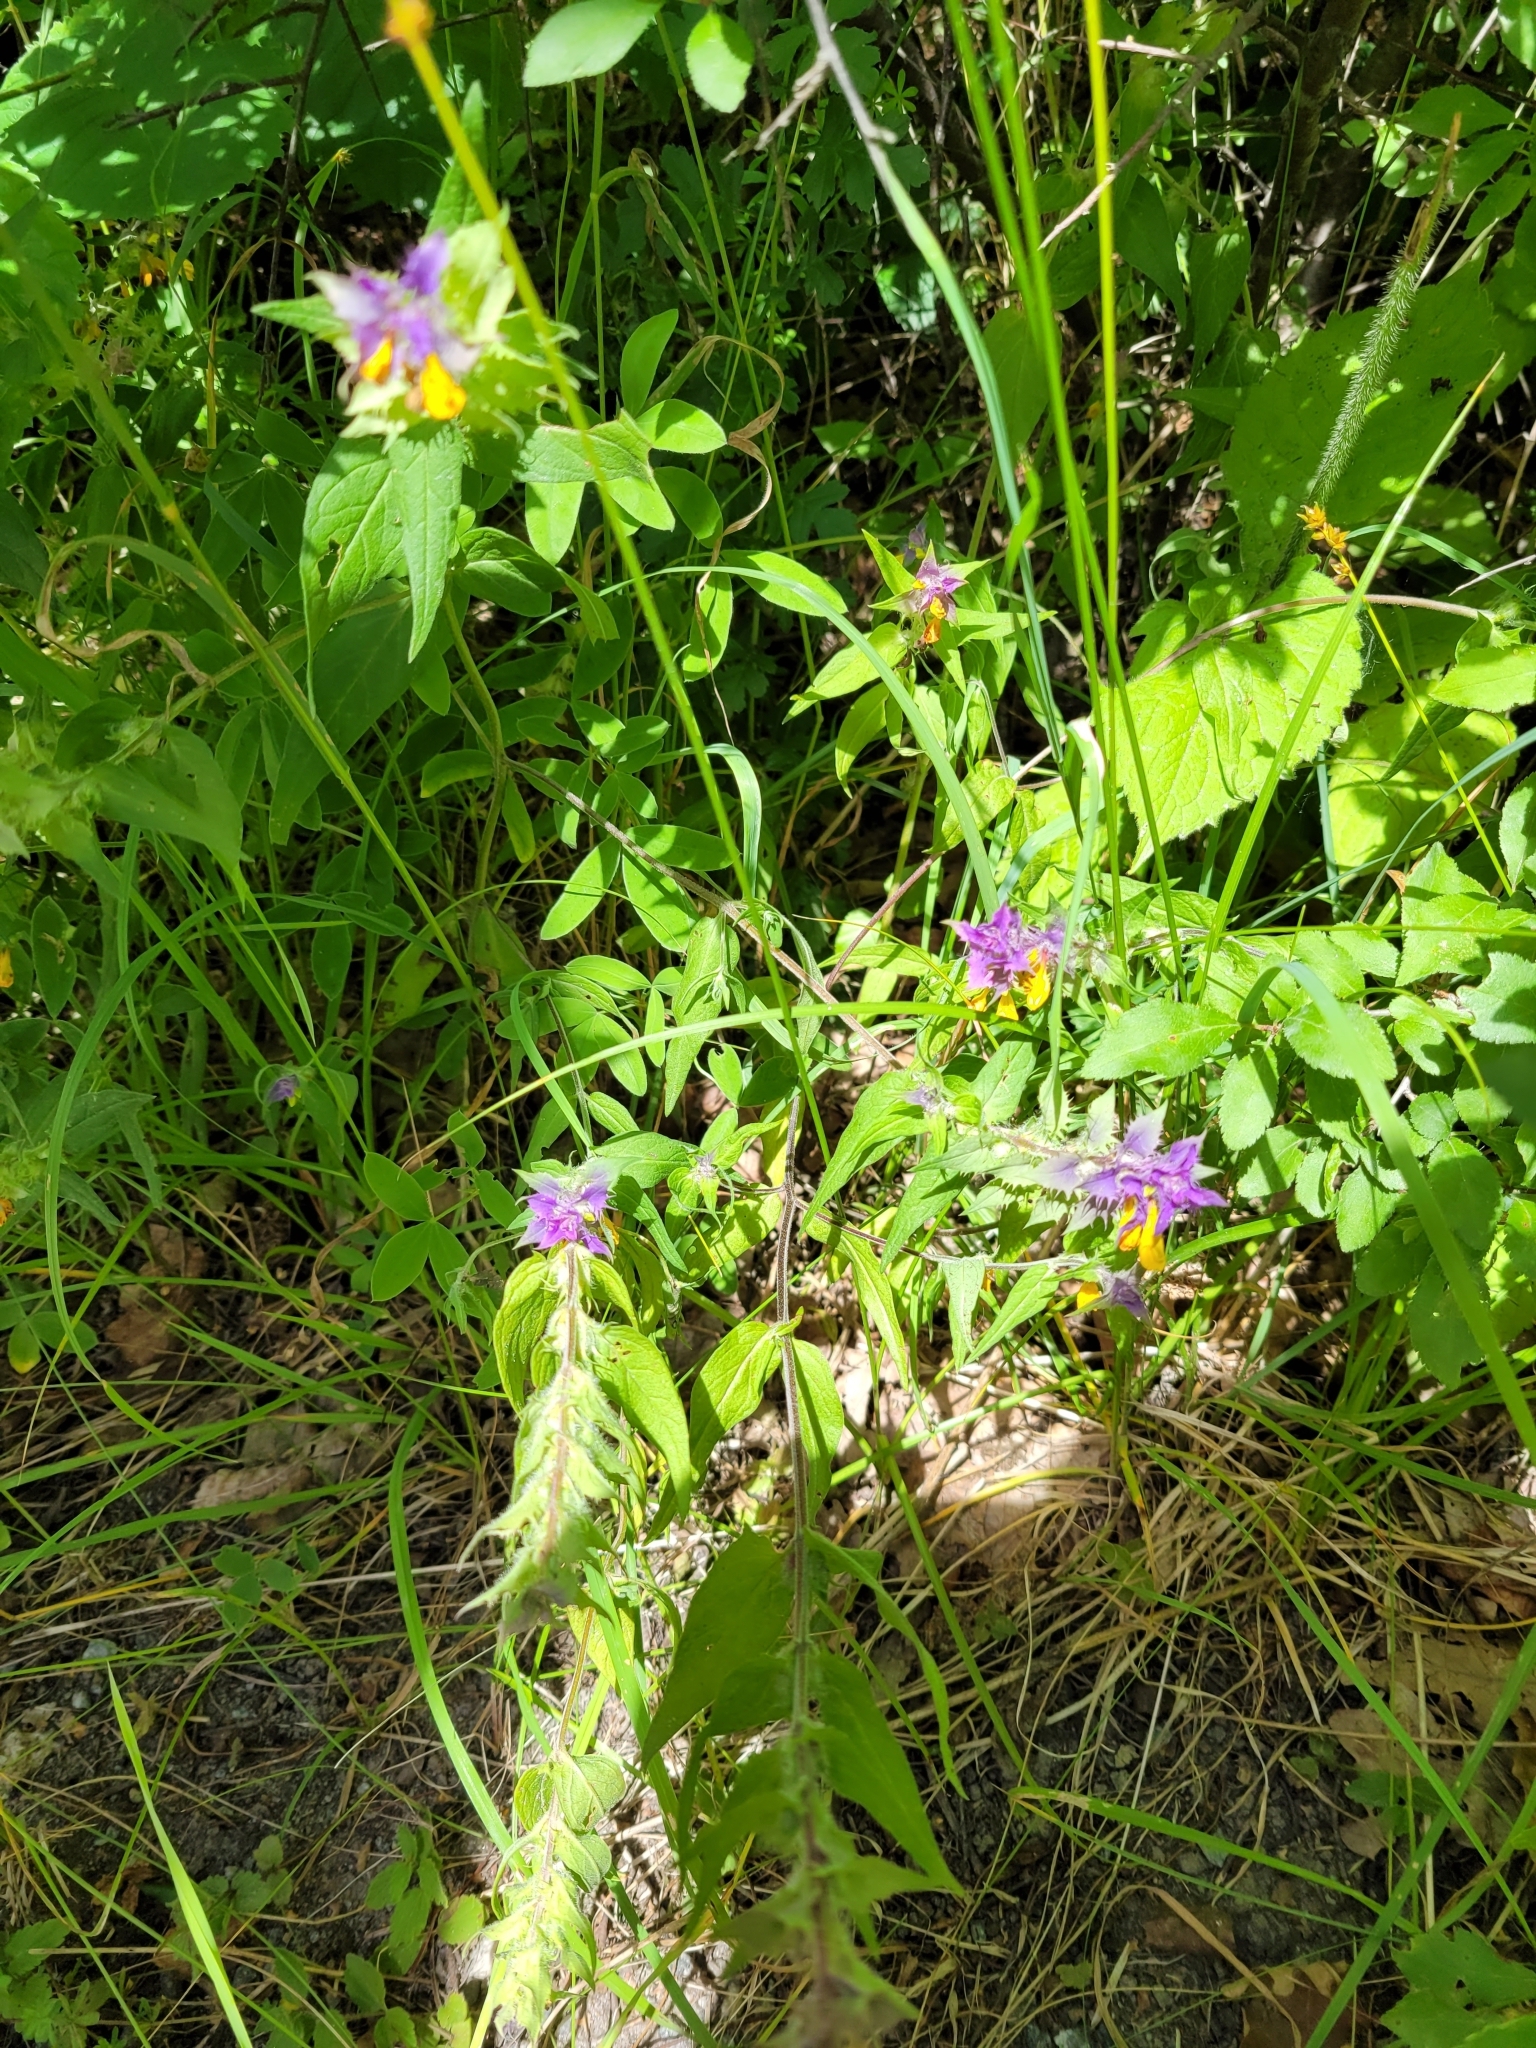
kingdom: Plantae
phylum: Tracheophyta
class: Magnoliopsida
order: Lamiales
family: Orobanchaceae
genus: Melampyrum
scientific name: Melampyrum nemorosum
